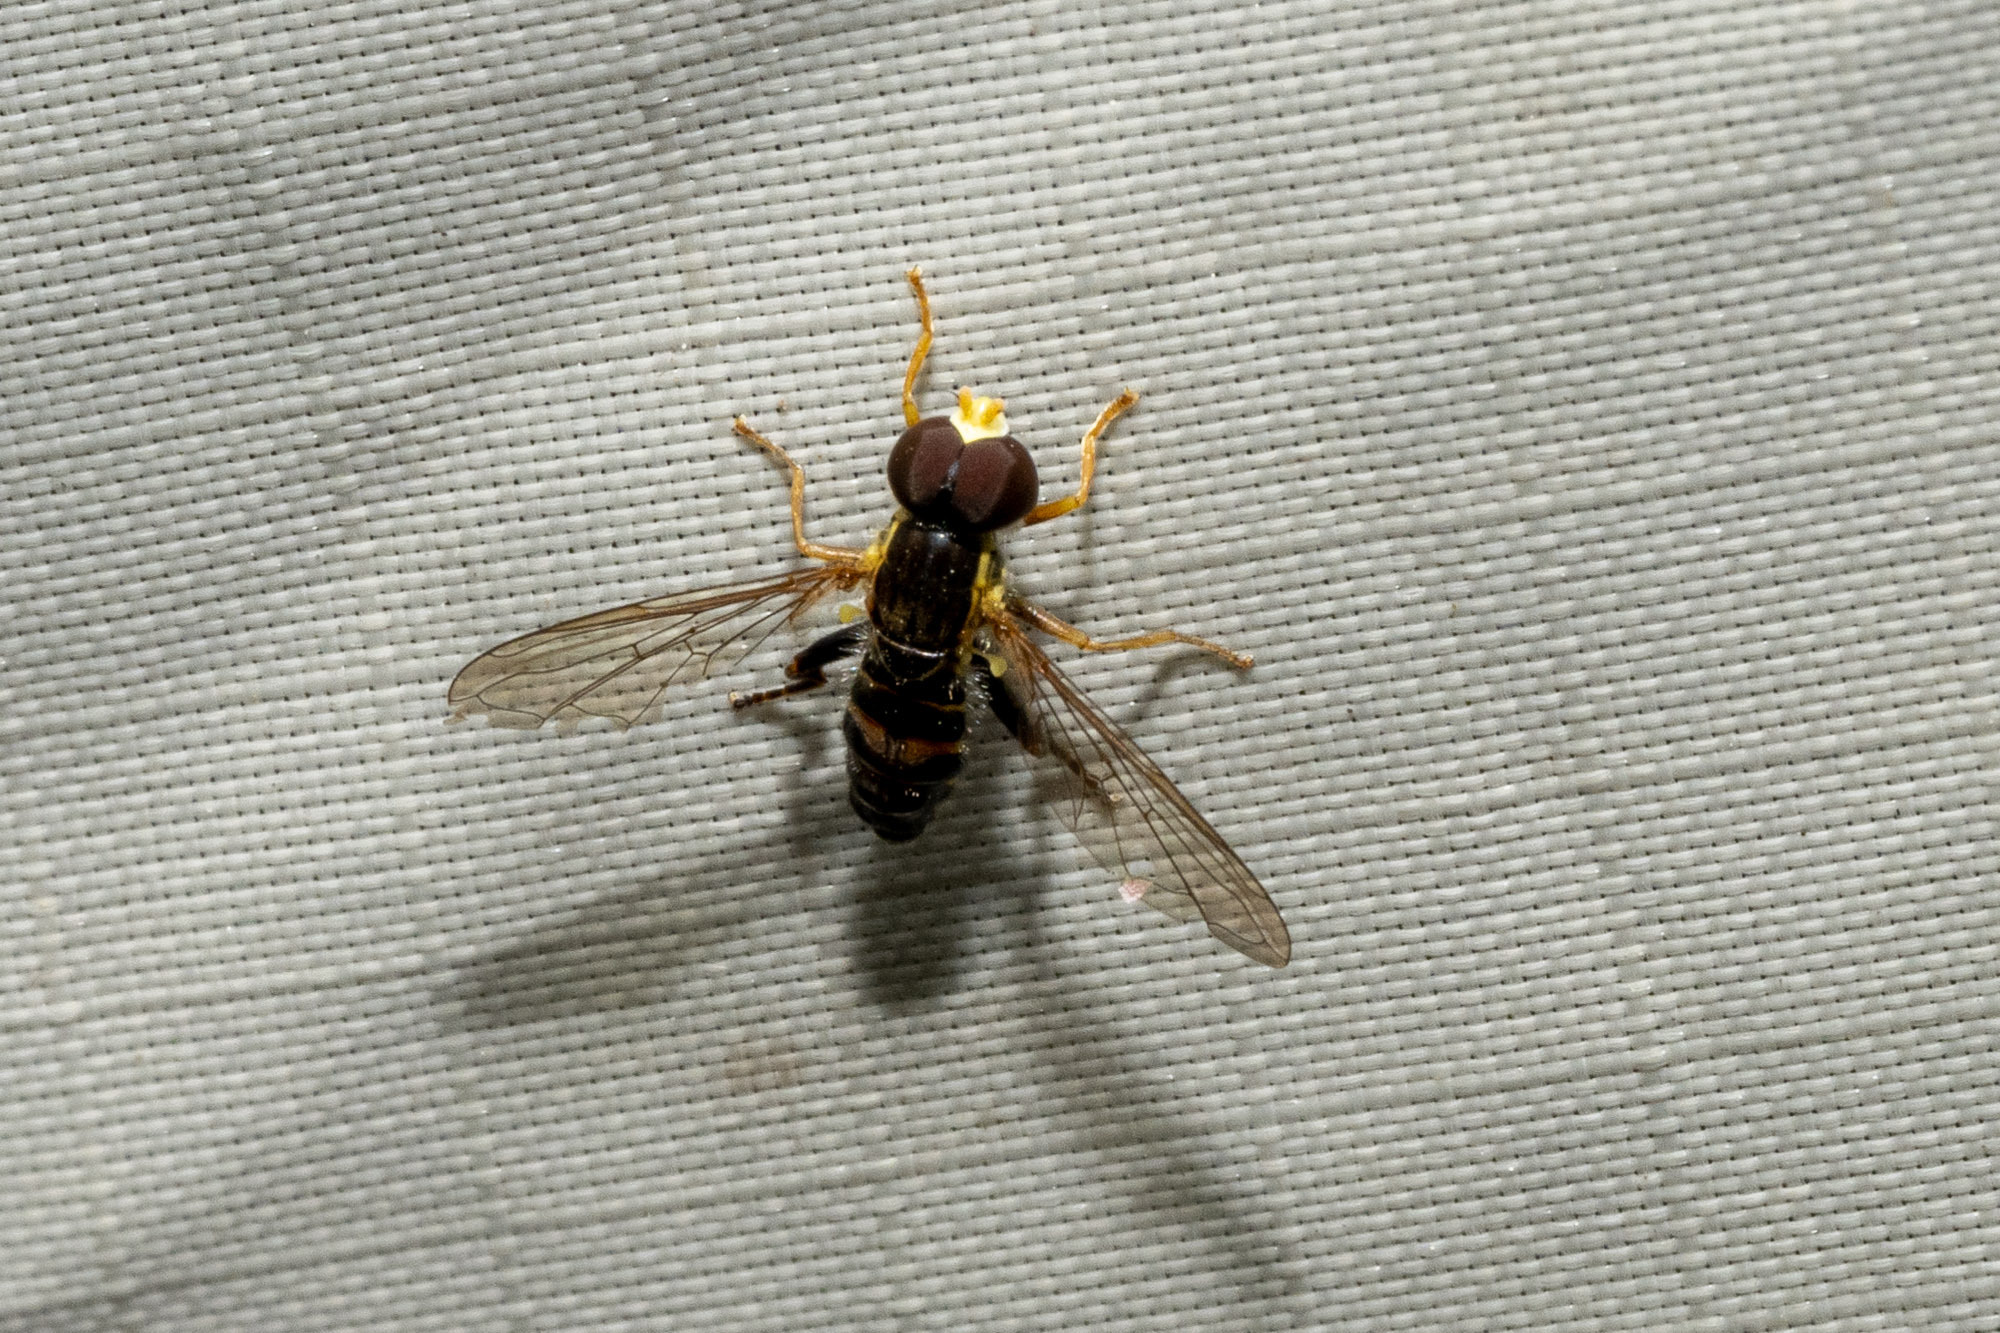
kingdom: Animalia
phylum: Arthropoda
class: Insecta
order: Diptera
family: Syrphidae
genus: Toxomerus
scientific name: Toxomerus occidentalis
